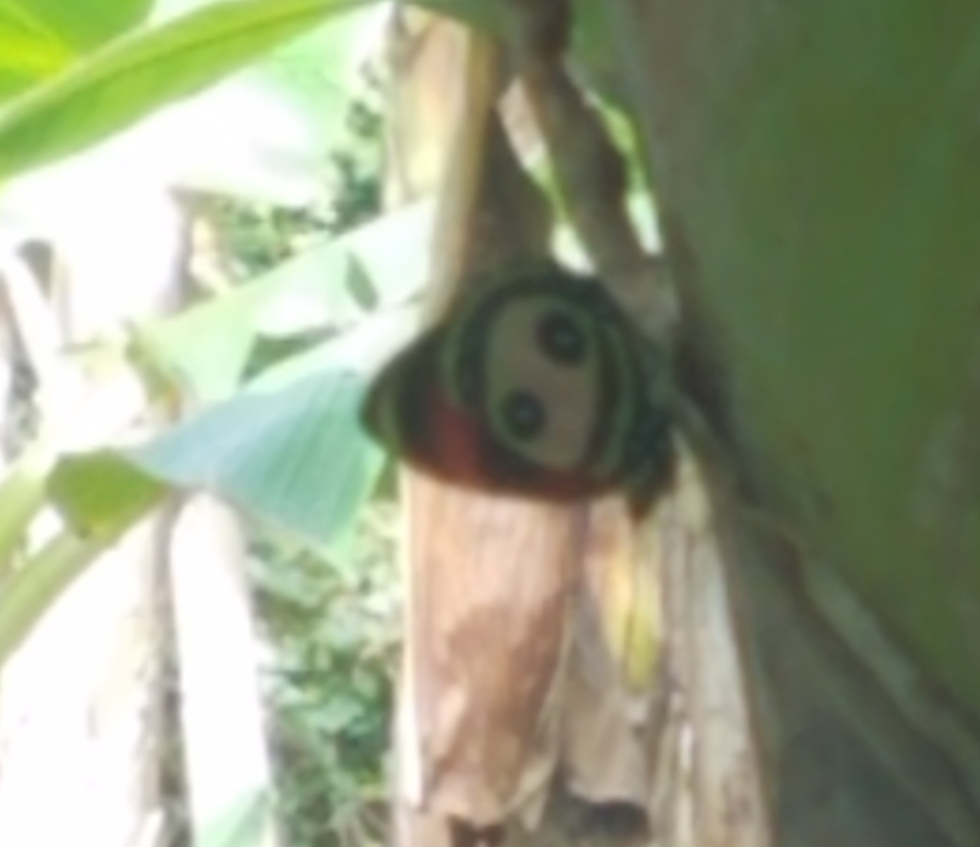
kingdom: Animalia
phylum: Arthropoda
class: Insecta
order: Lepidoptera
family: Nymphalidae
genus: Catagramma
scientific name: Catagramma Callicore pitheas
